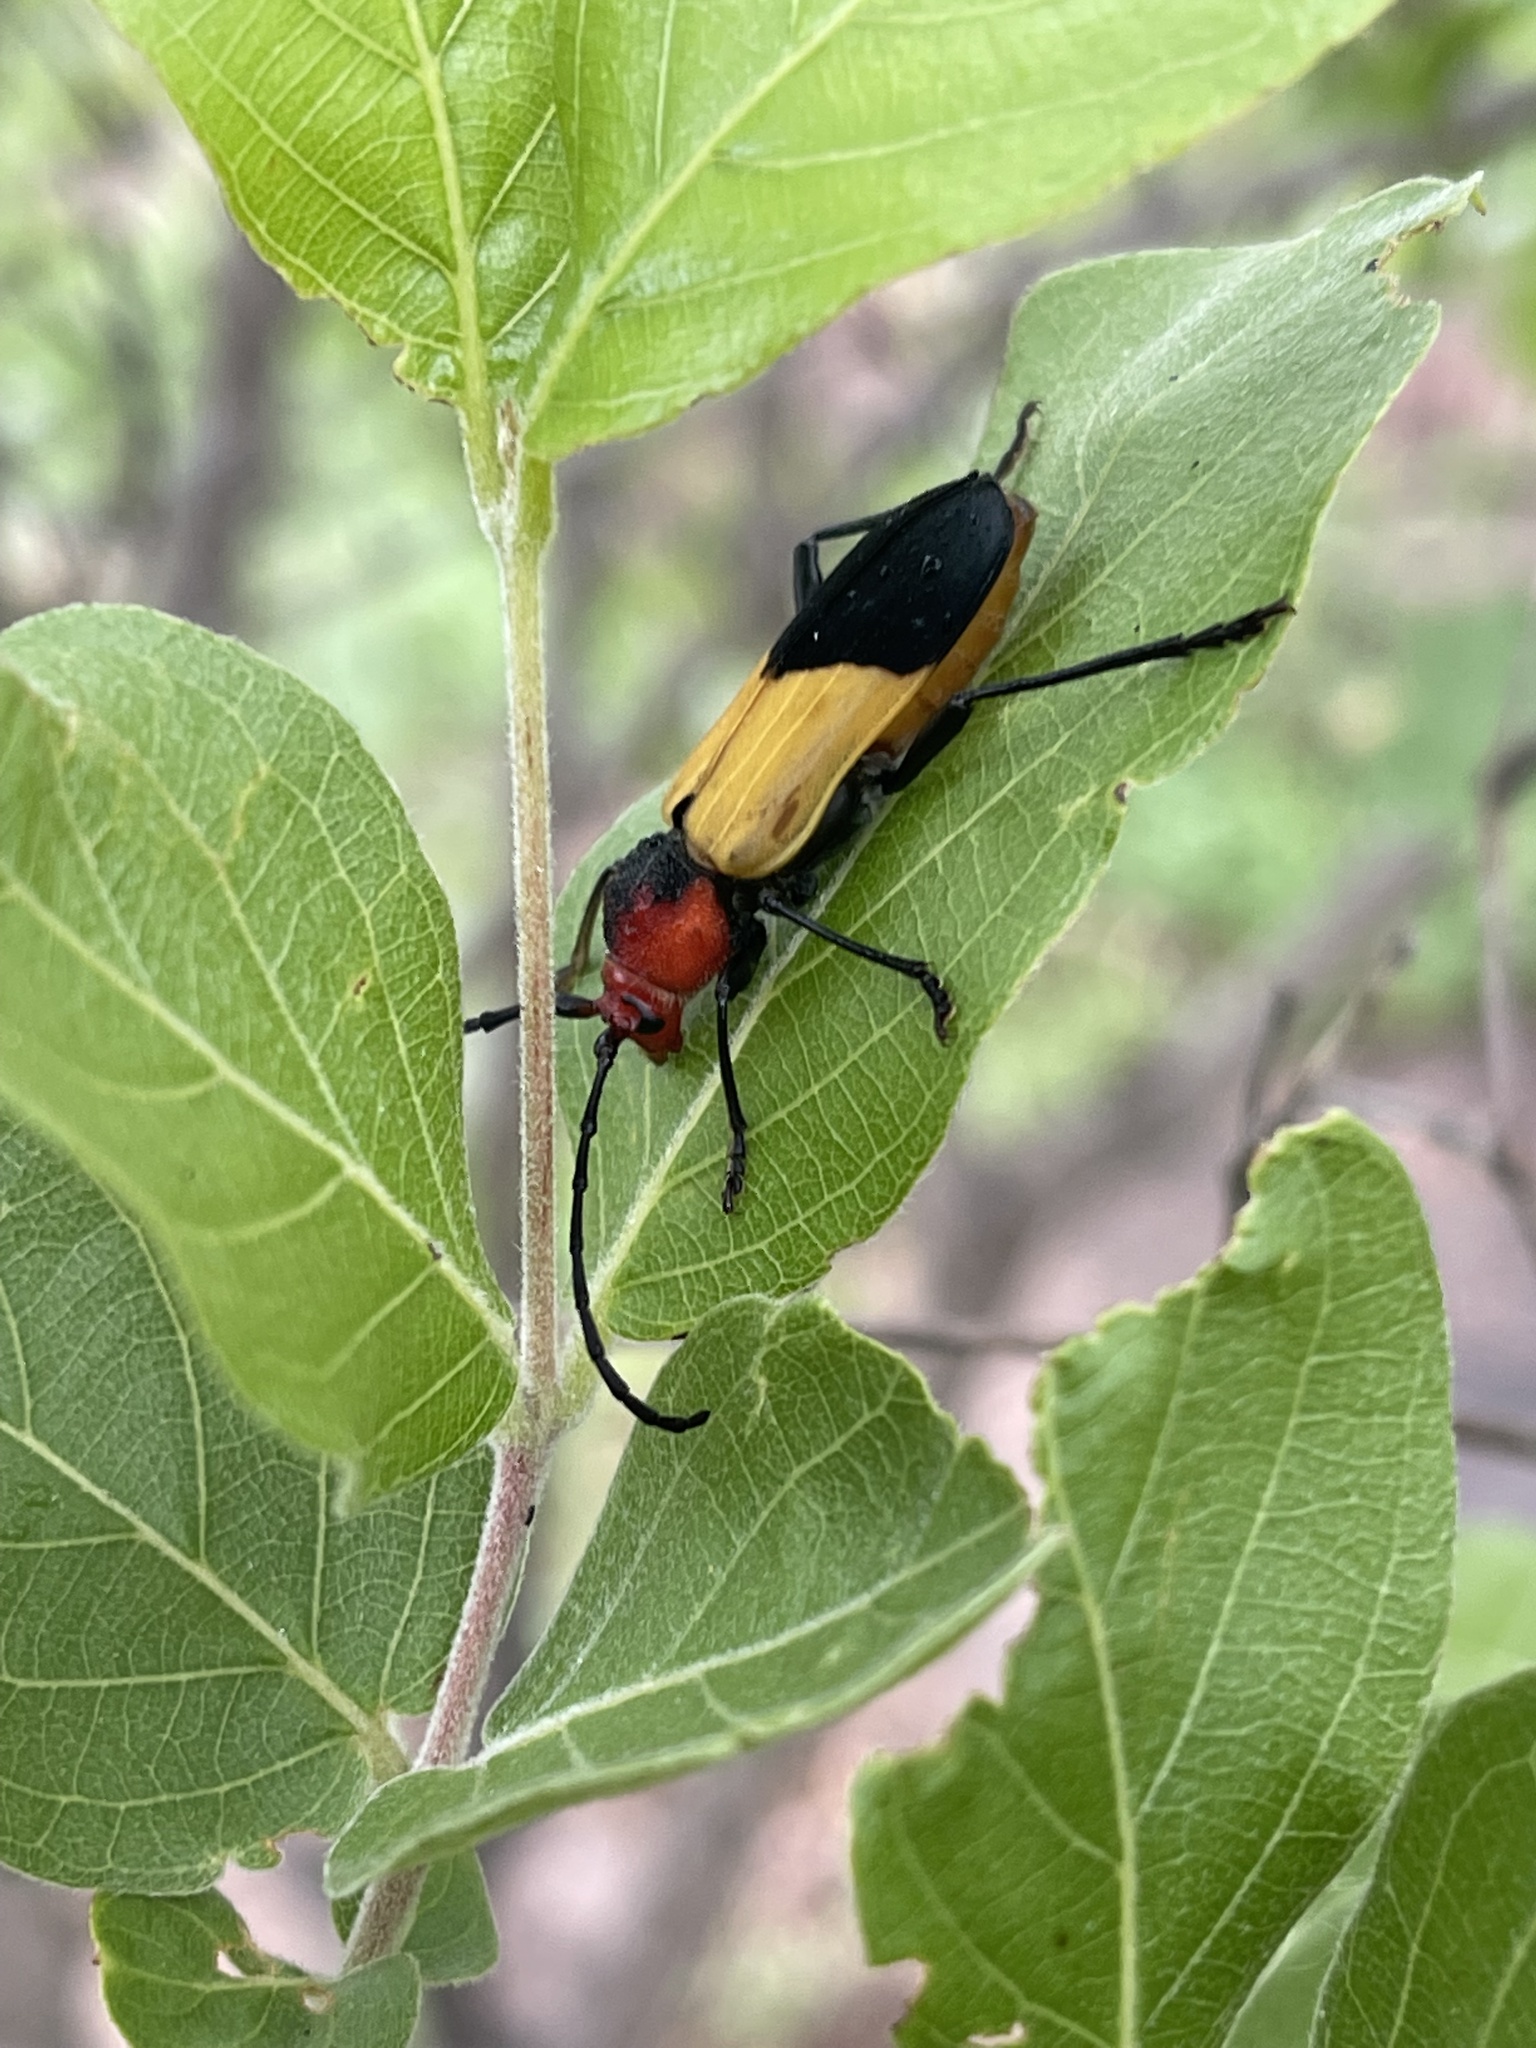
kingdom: Animalia
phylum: Arthropoda
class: Insecta
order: Coleoptera
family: Cerambycidae
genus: Purpuricenus
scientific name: Purpuricenus laetus
